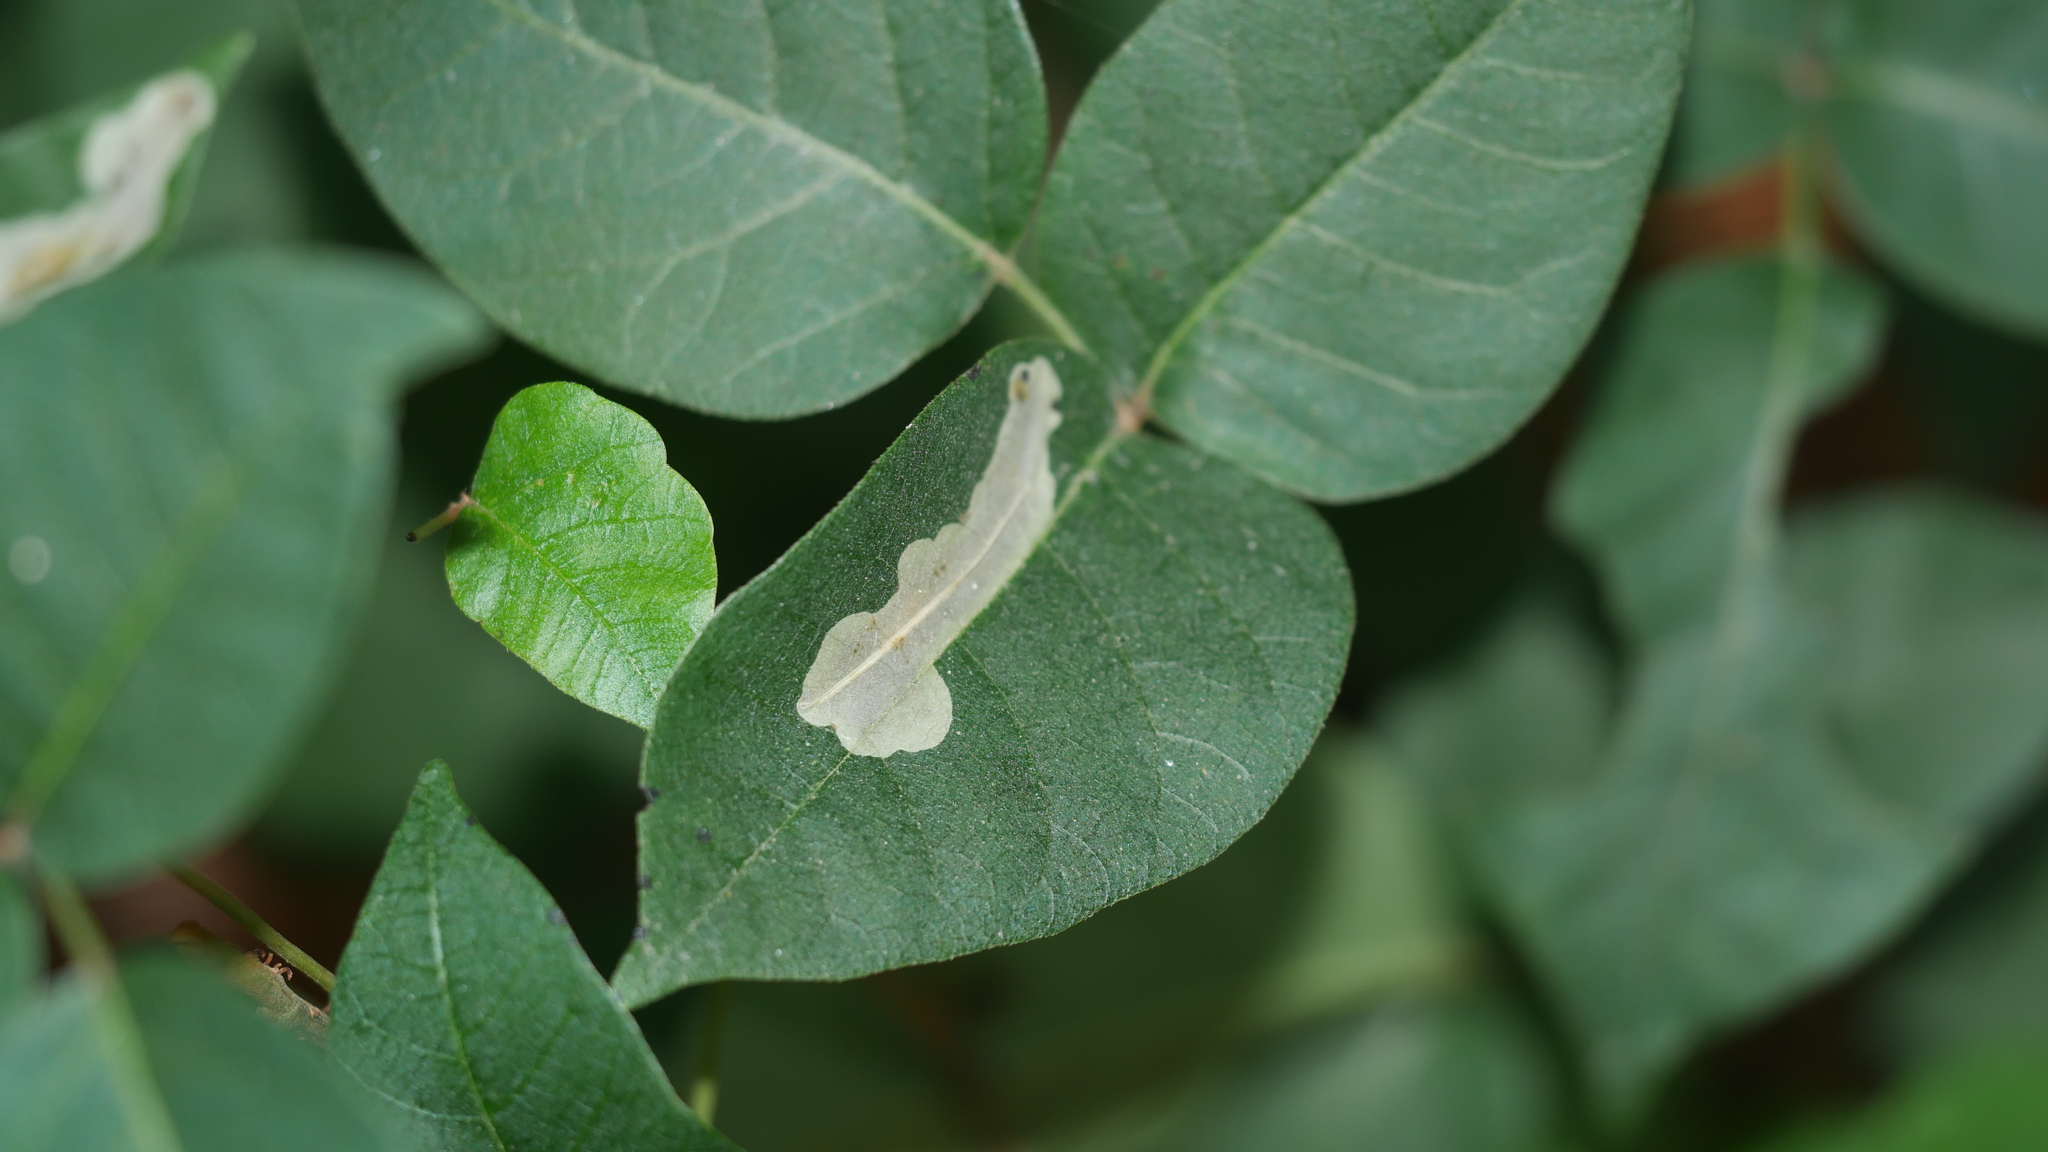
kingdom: Animalia
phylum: Arthropoda
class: Insecta
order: Lepidoptera
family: Gracillariidae
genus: Cameraria
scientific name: Cameraria guttifinitella
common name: Poison ivy leaf-miner moth
